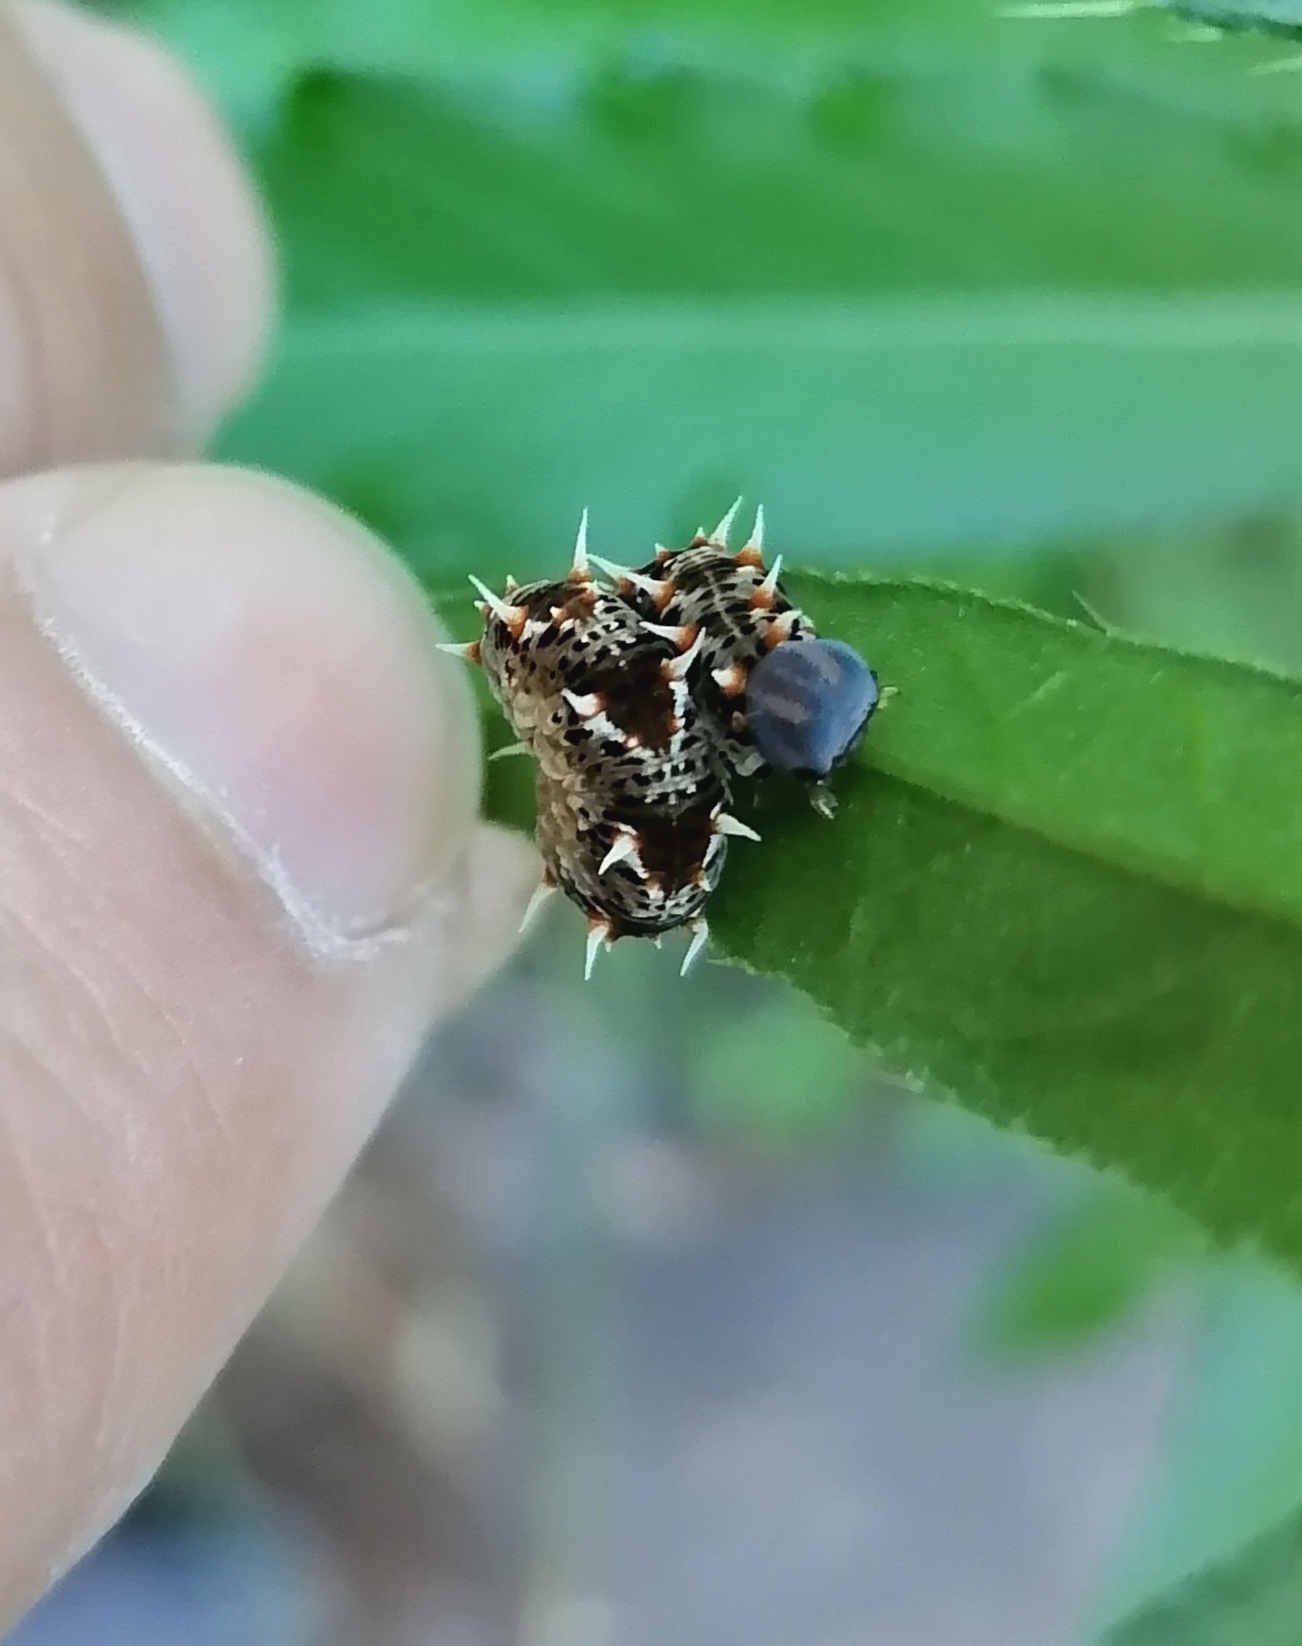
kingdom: Animalia
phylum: Arthropoda
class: Insecta
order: Hymenoptera
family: Tenthredinidae
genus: Siobla
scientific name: Siobla ruficornis
